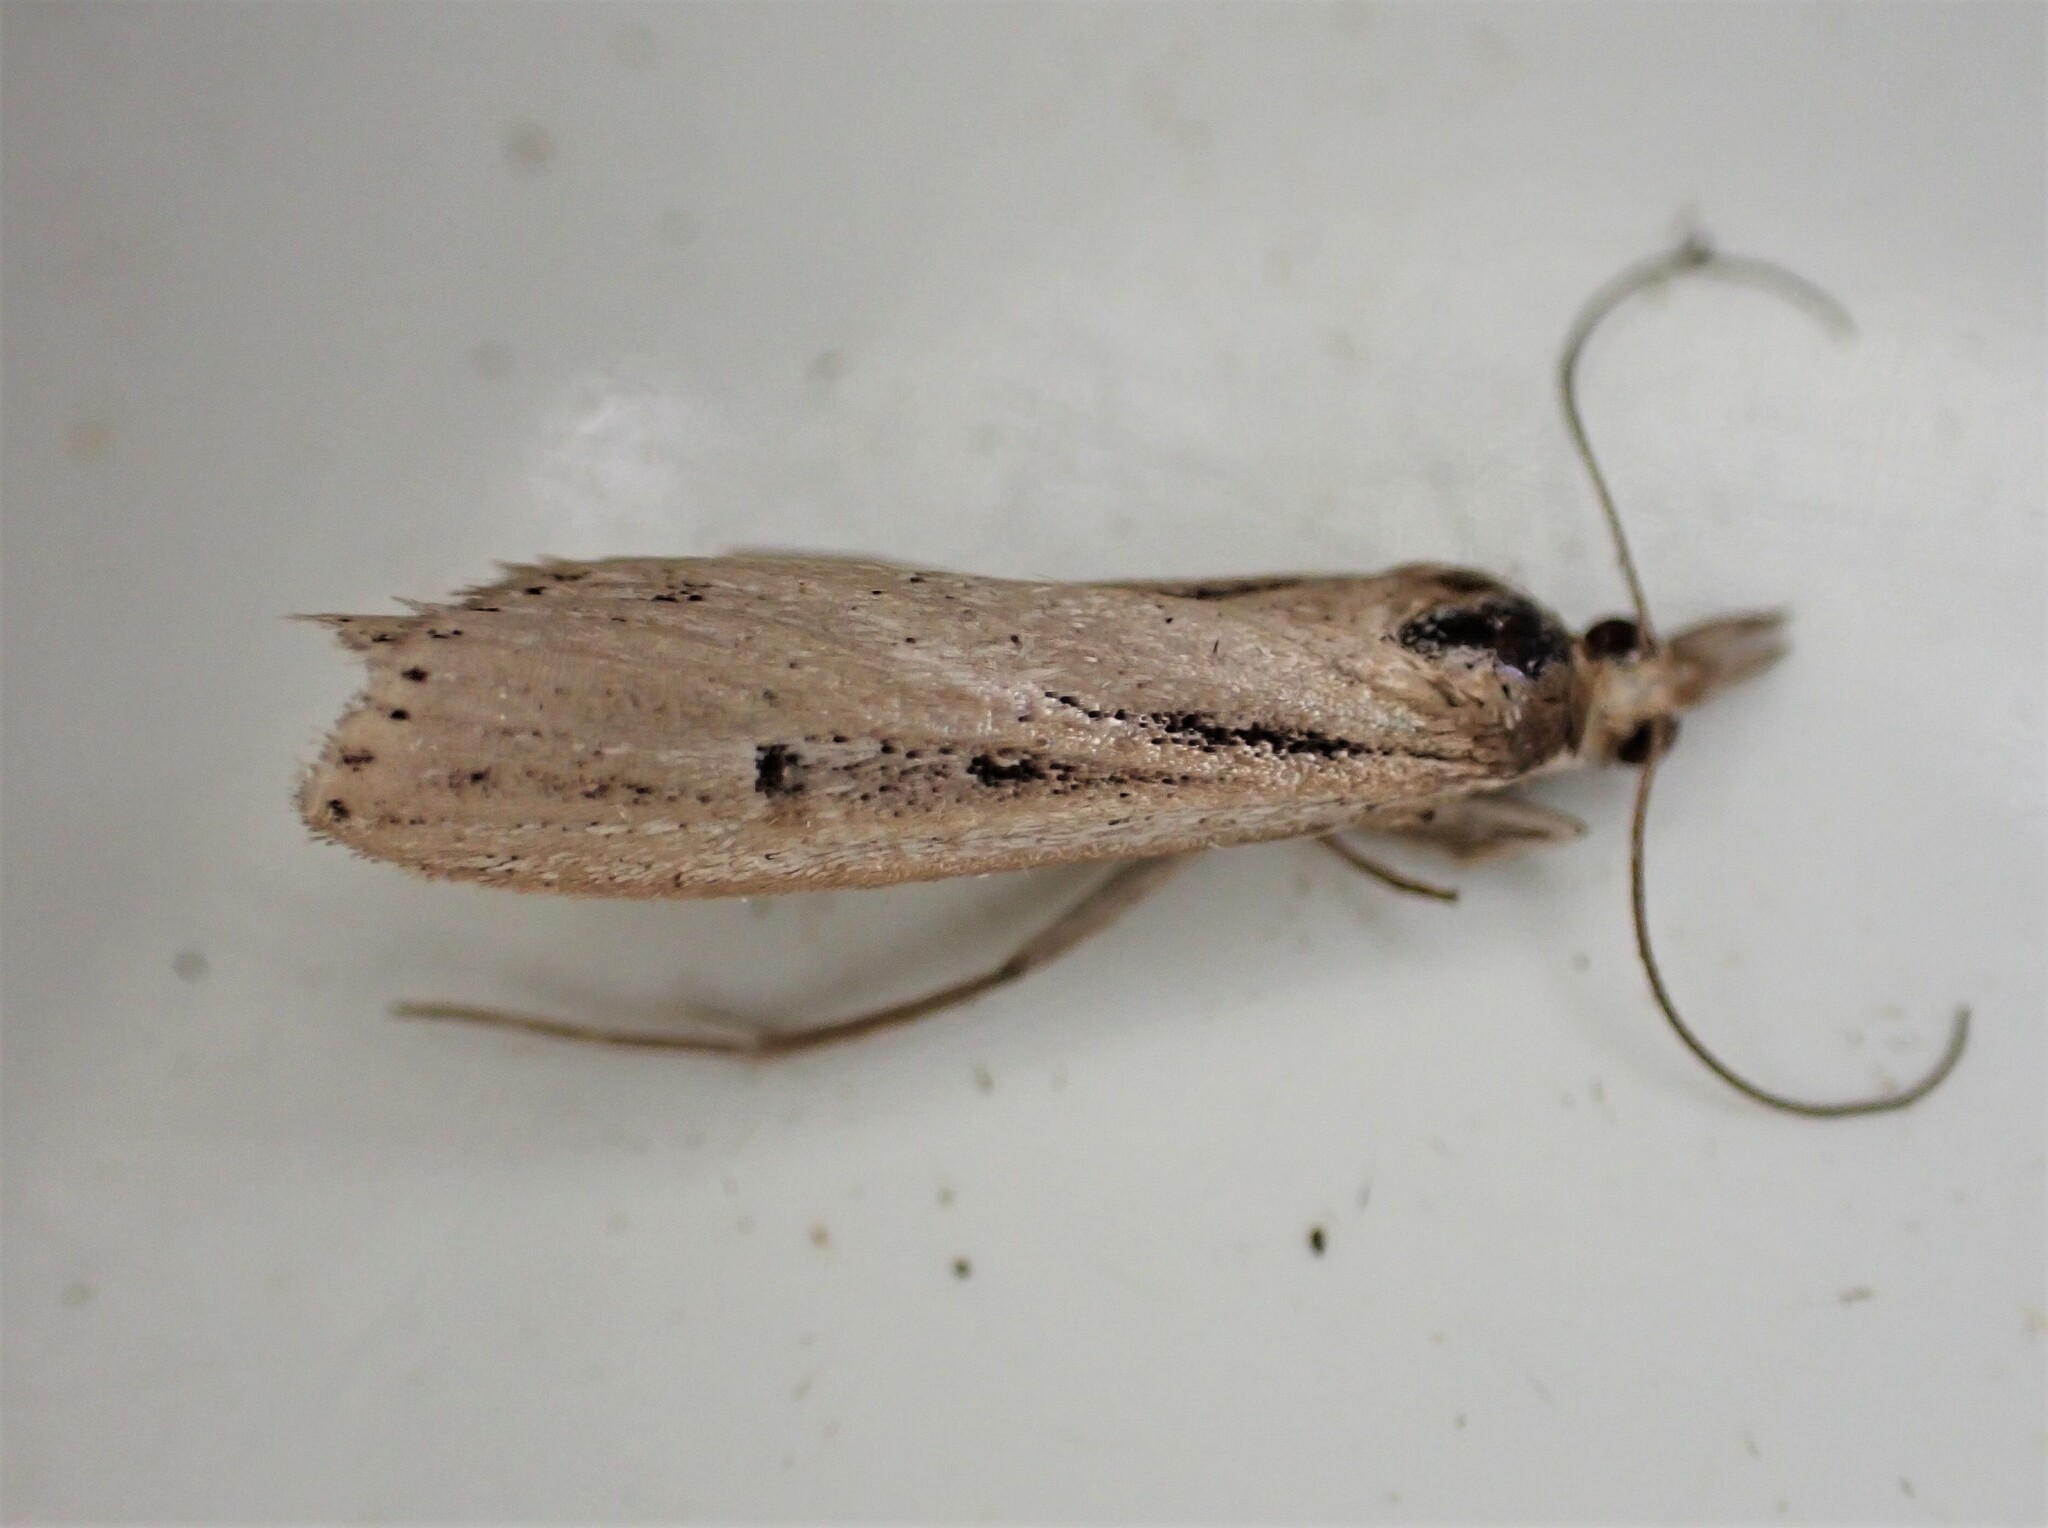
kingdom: Animalia
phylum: Arthropoda
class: Insecta
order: Lepidoptera
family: Crambidae
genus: Eudonia
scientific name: Eudonia sabulosella
